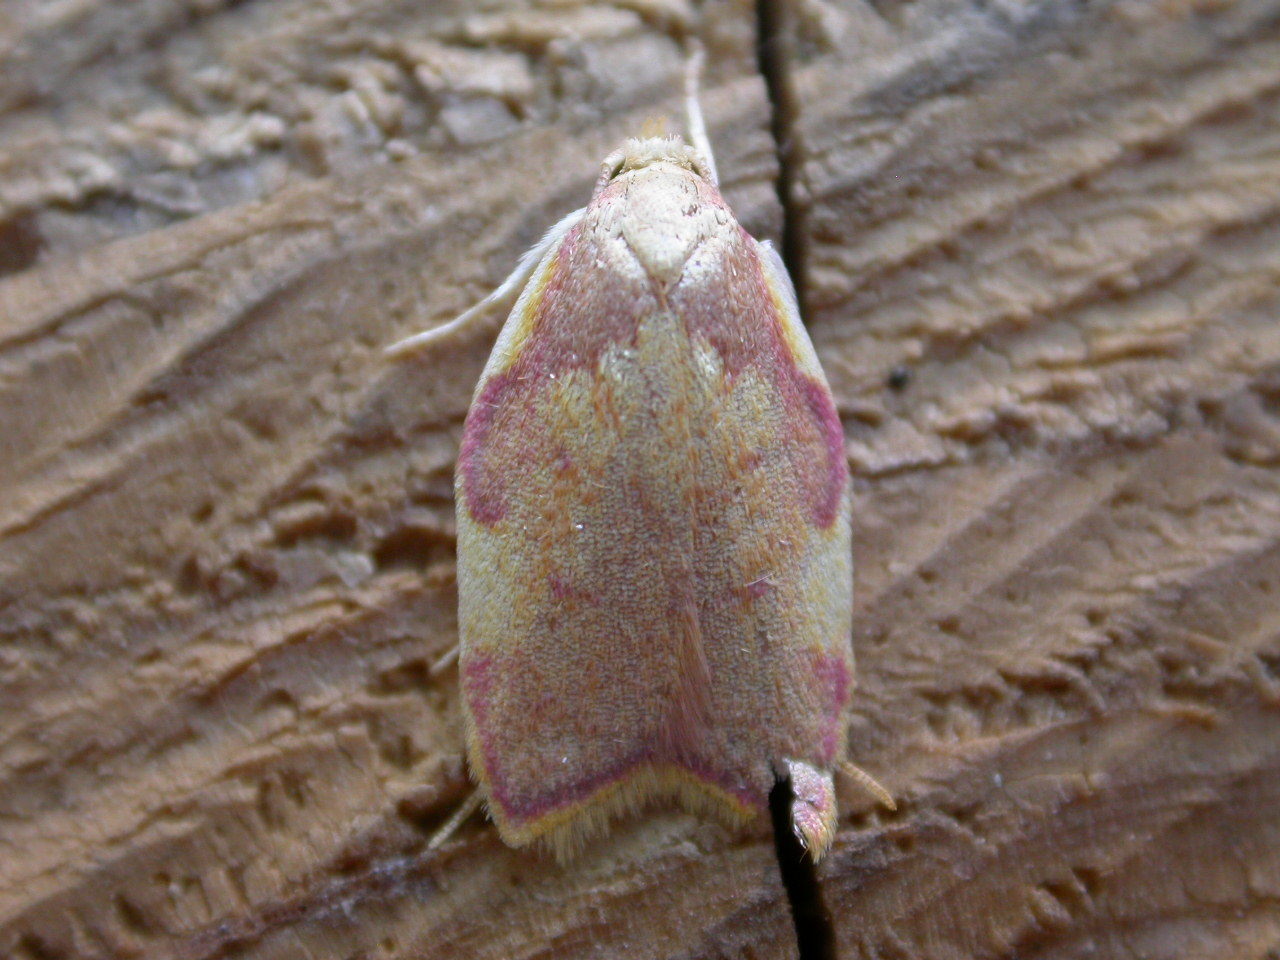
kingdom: Animalia
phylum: Arthropoda
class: Insecta
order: Lepidoptera
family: Peleopodidae
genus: Carcina
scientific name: Carcina quercana
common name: Moth
